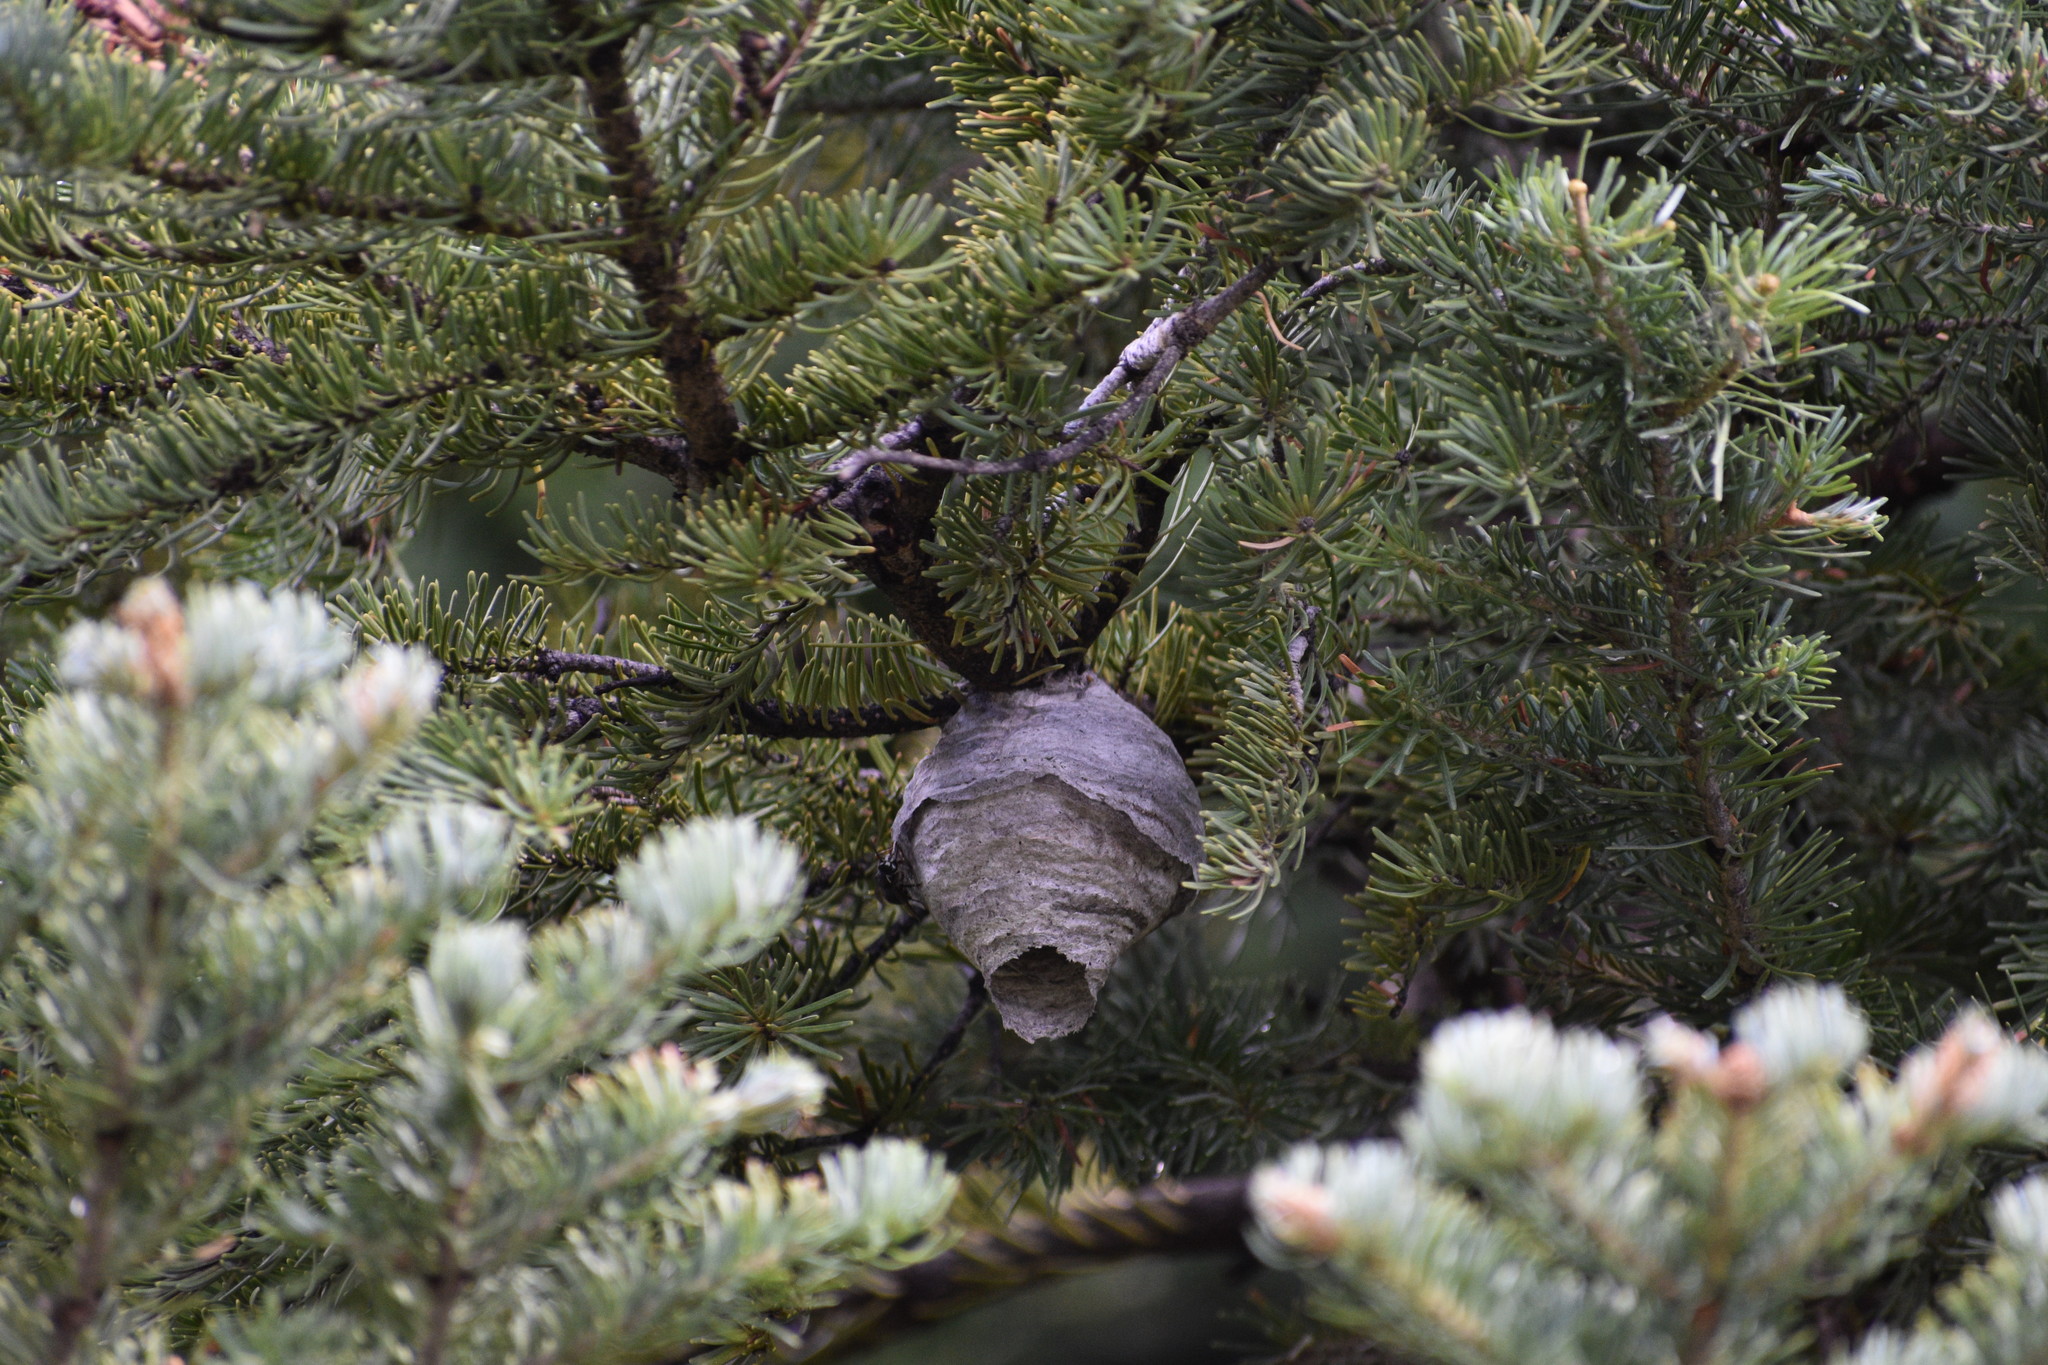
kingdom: Animalia
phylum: Arthropoda
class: Insecta
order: Hymenoptera
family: Vespidae
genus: Dolichovespula
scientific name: Dolichovespula
